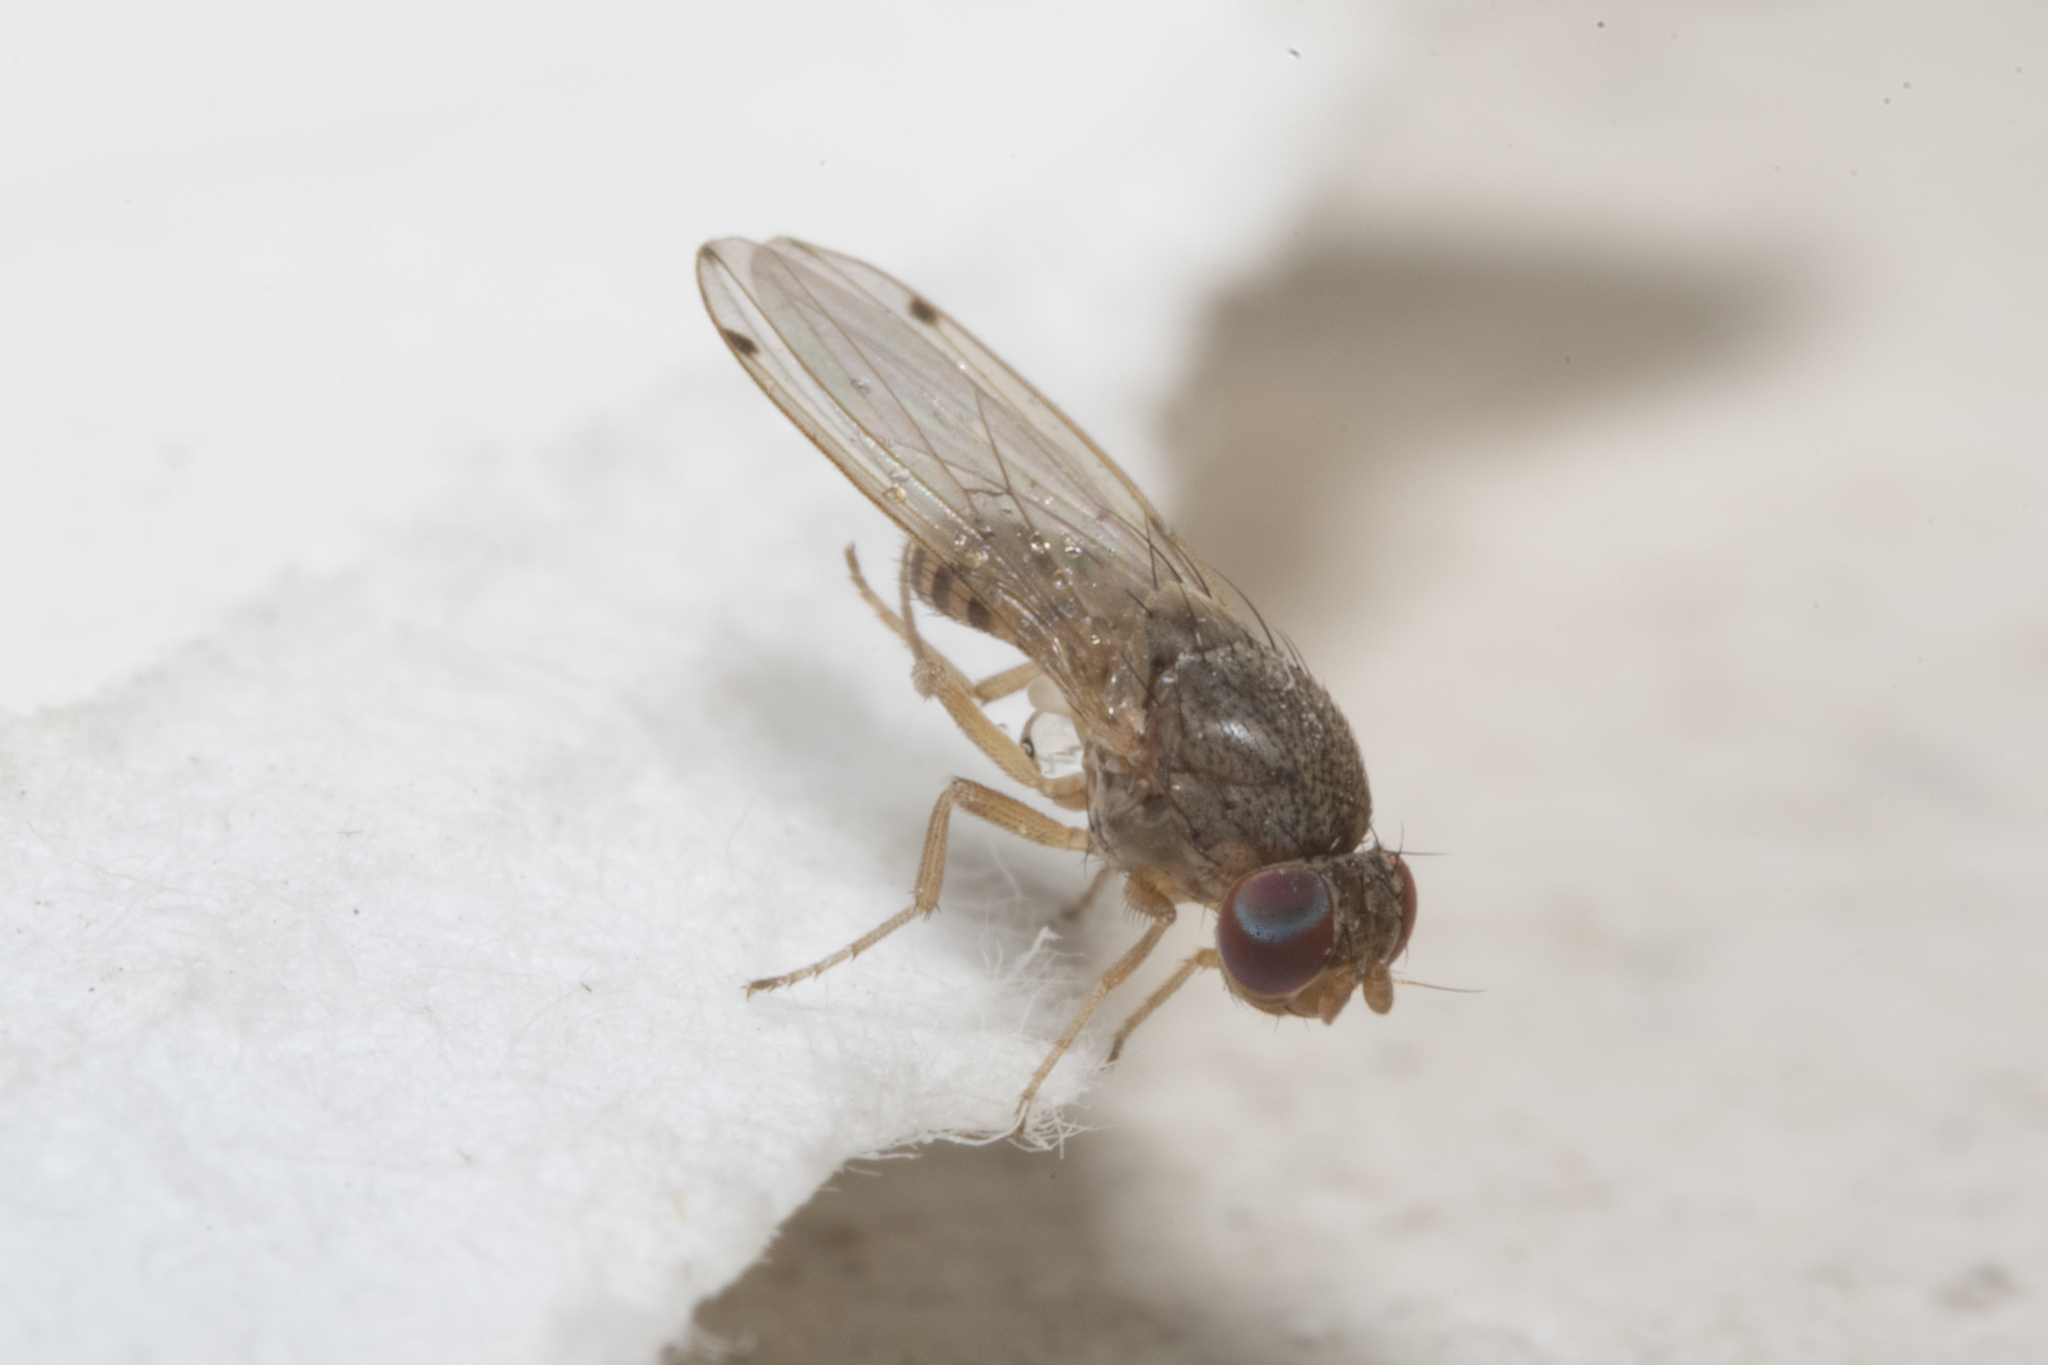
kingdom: Animalia
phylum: Arthropoda
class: Insecta
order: Diptera
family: Drosophilidae
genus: Gitona
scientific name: Gitona distigma
